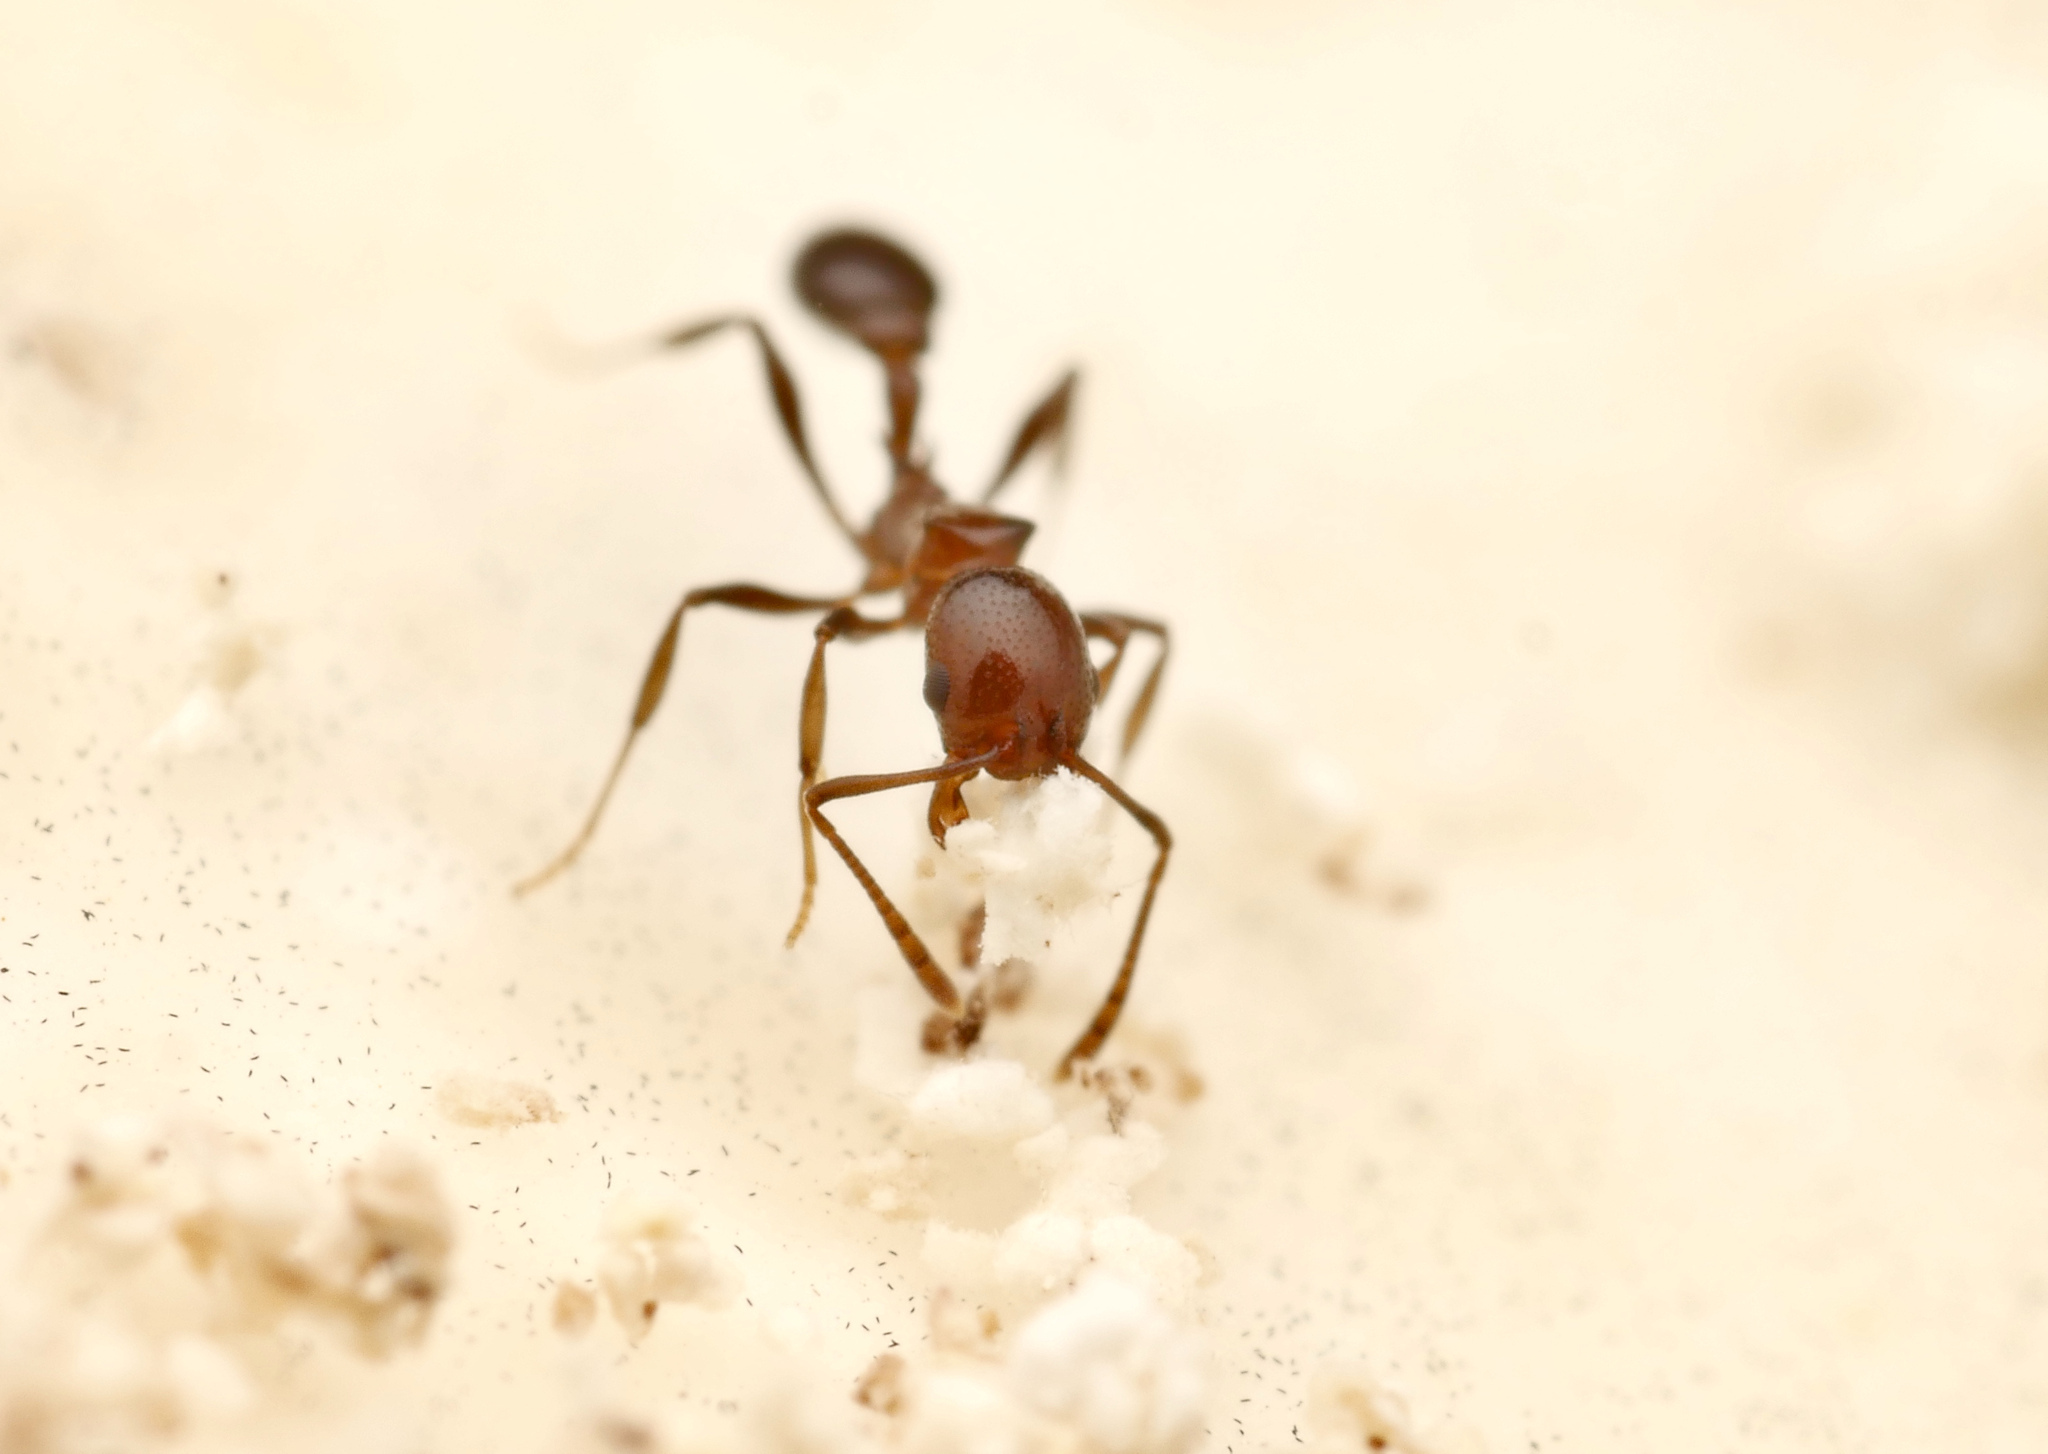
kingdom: Animalia
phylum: Arthropoda
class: Insecta
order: Hymenoptera
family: Formicidae
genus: Cardiocondyla
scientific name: Cardiocondyla paradoxa
